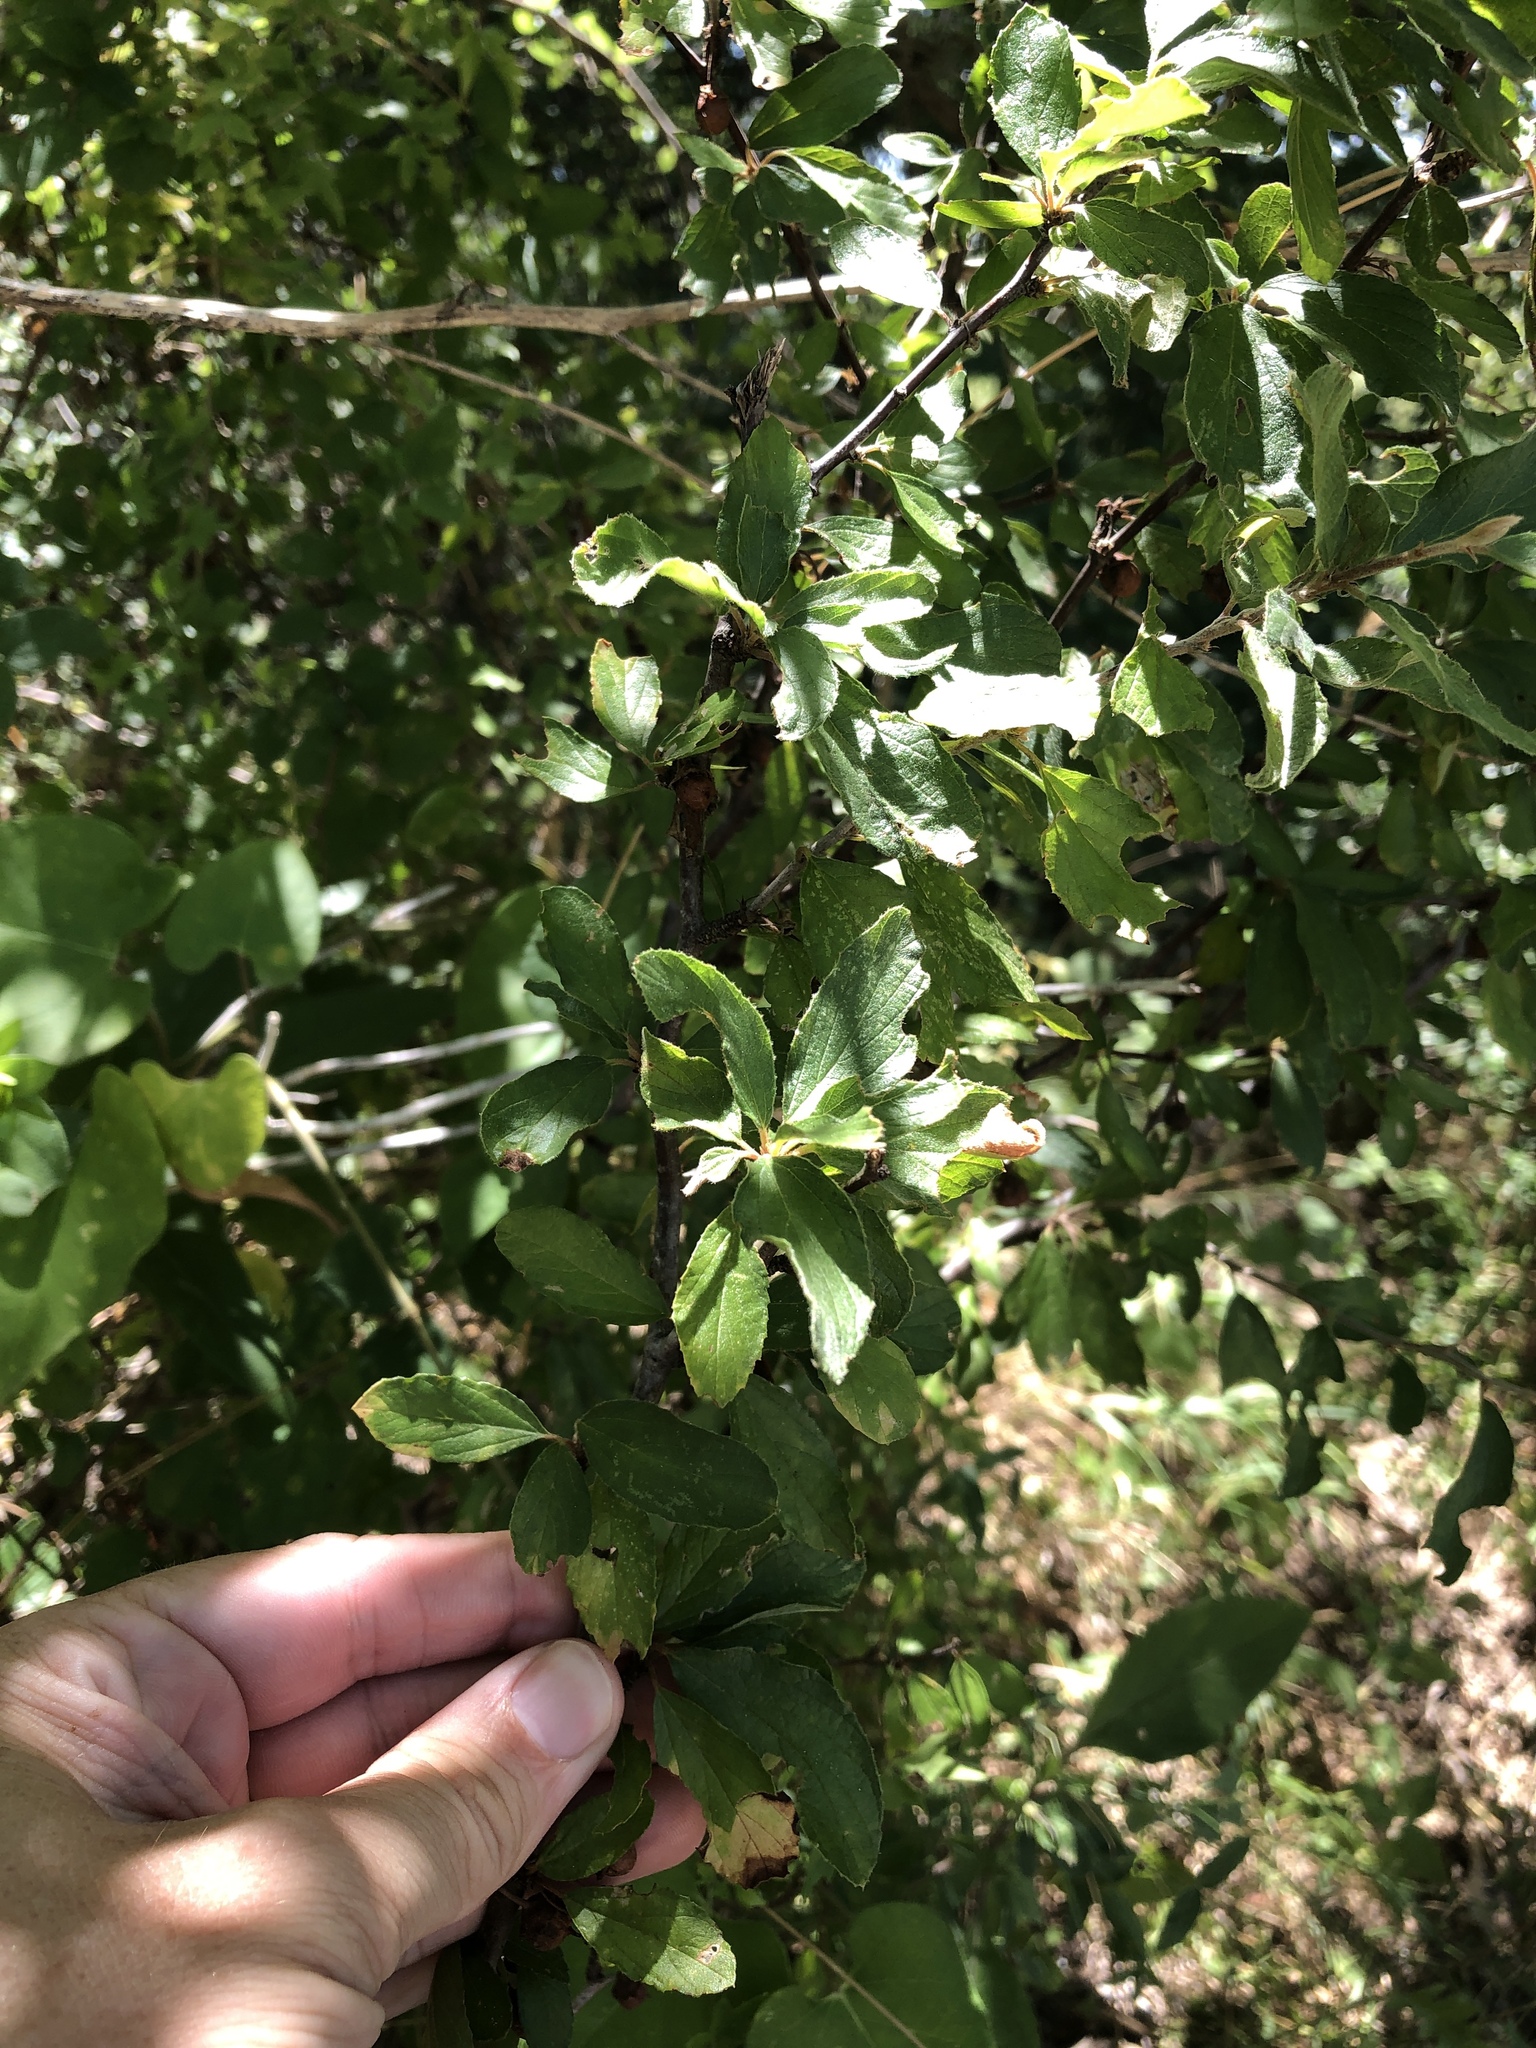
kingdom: Plantae
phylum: Tracheophyta
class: Magnoliopsida
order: Rosales
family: Rhamnaceae
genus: Colubrina
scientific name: Colubrina texensis
